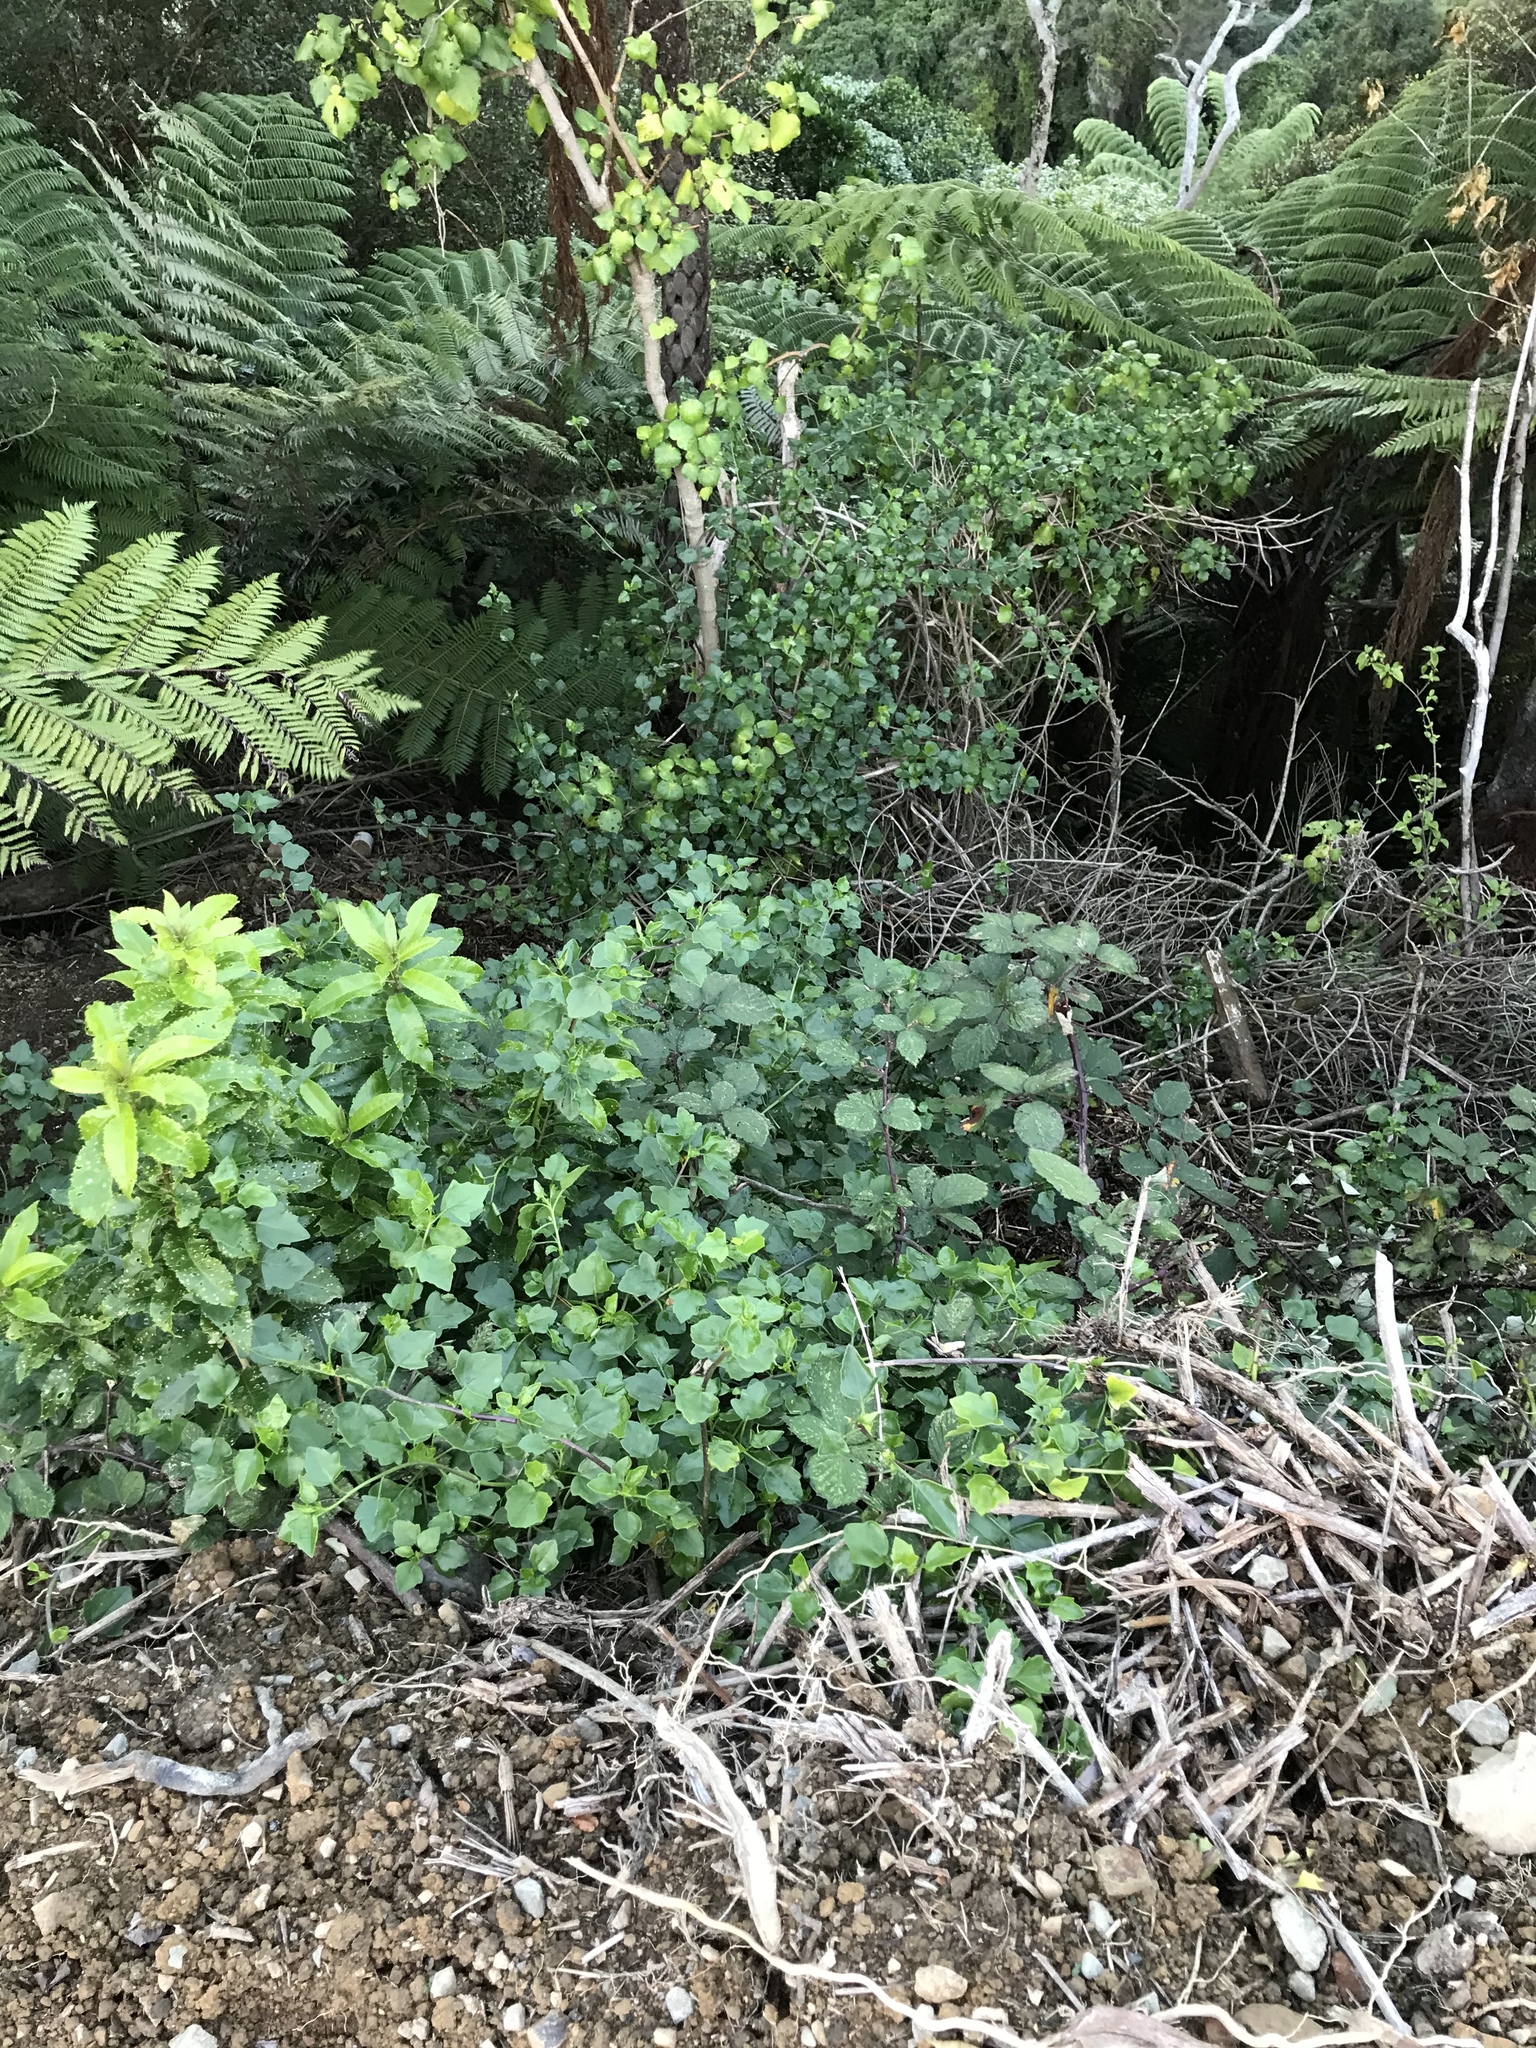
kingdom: Plantae
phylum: Tracheophyta
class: Magnoliopsida
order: Asterales
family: Asteraceae
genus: Senecio
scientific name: Senecio angulatus
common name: Climbing groundsel
